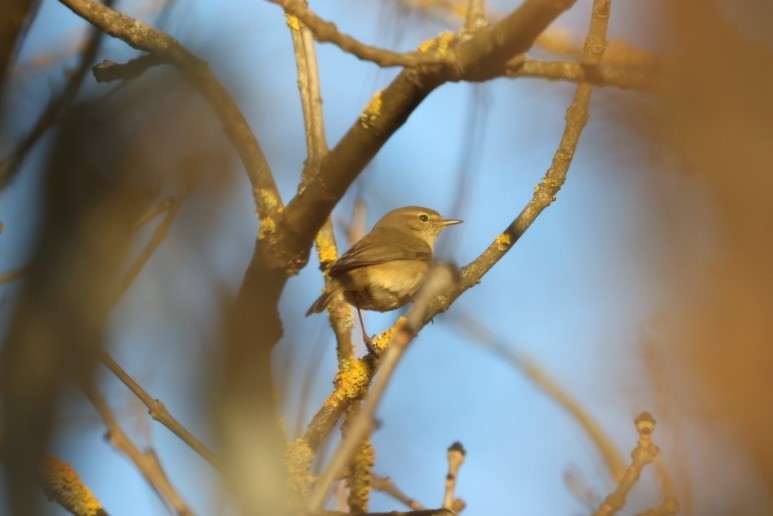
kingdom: Animalia
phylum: Chordata
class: Aves
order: Passeriformes
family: Phylloscopidae
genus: Phylloscopus
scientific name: Phylloscopus collybita
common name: Common chiffchaff
